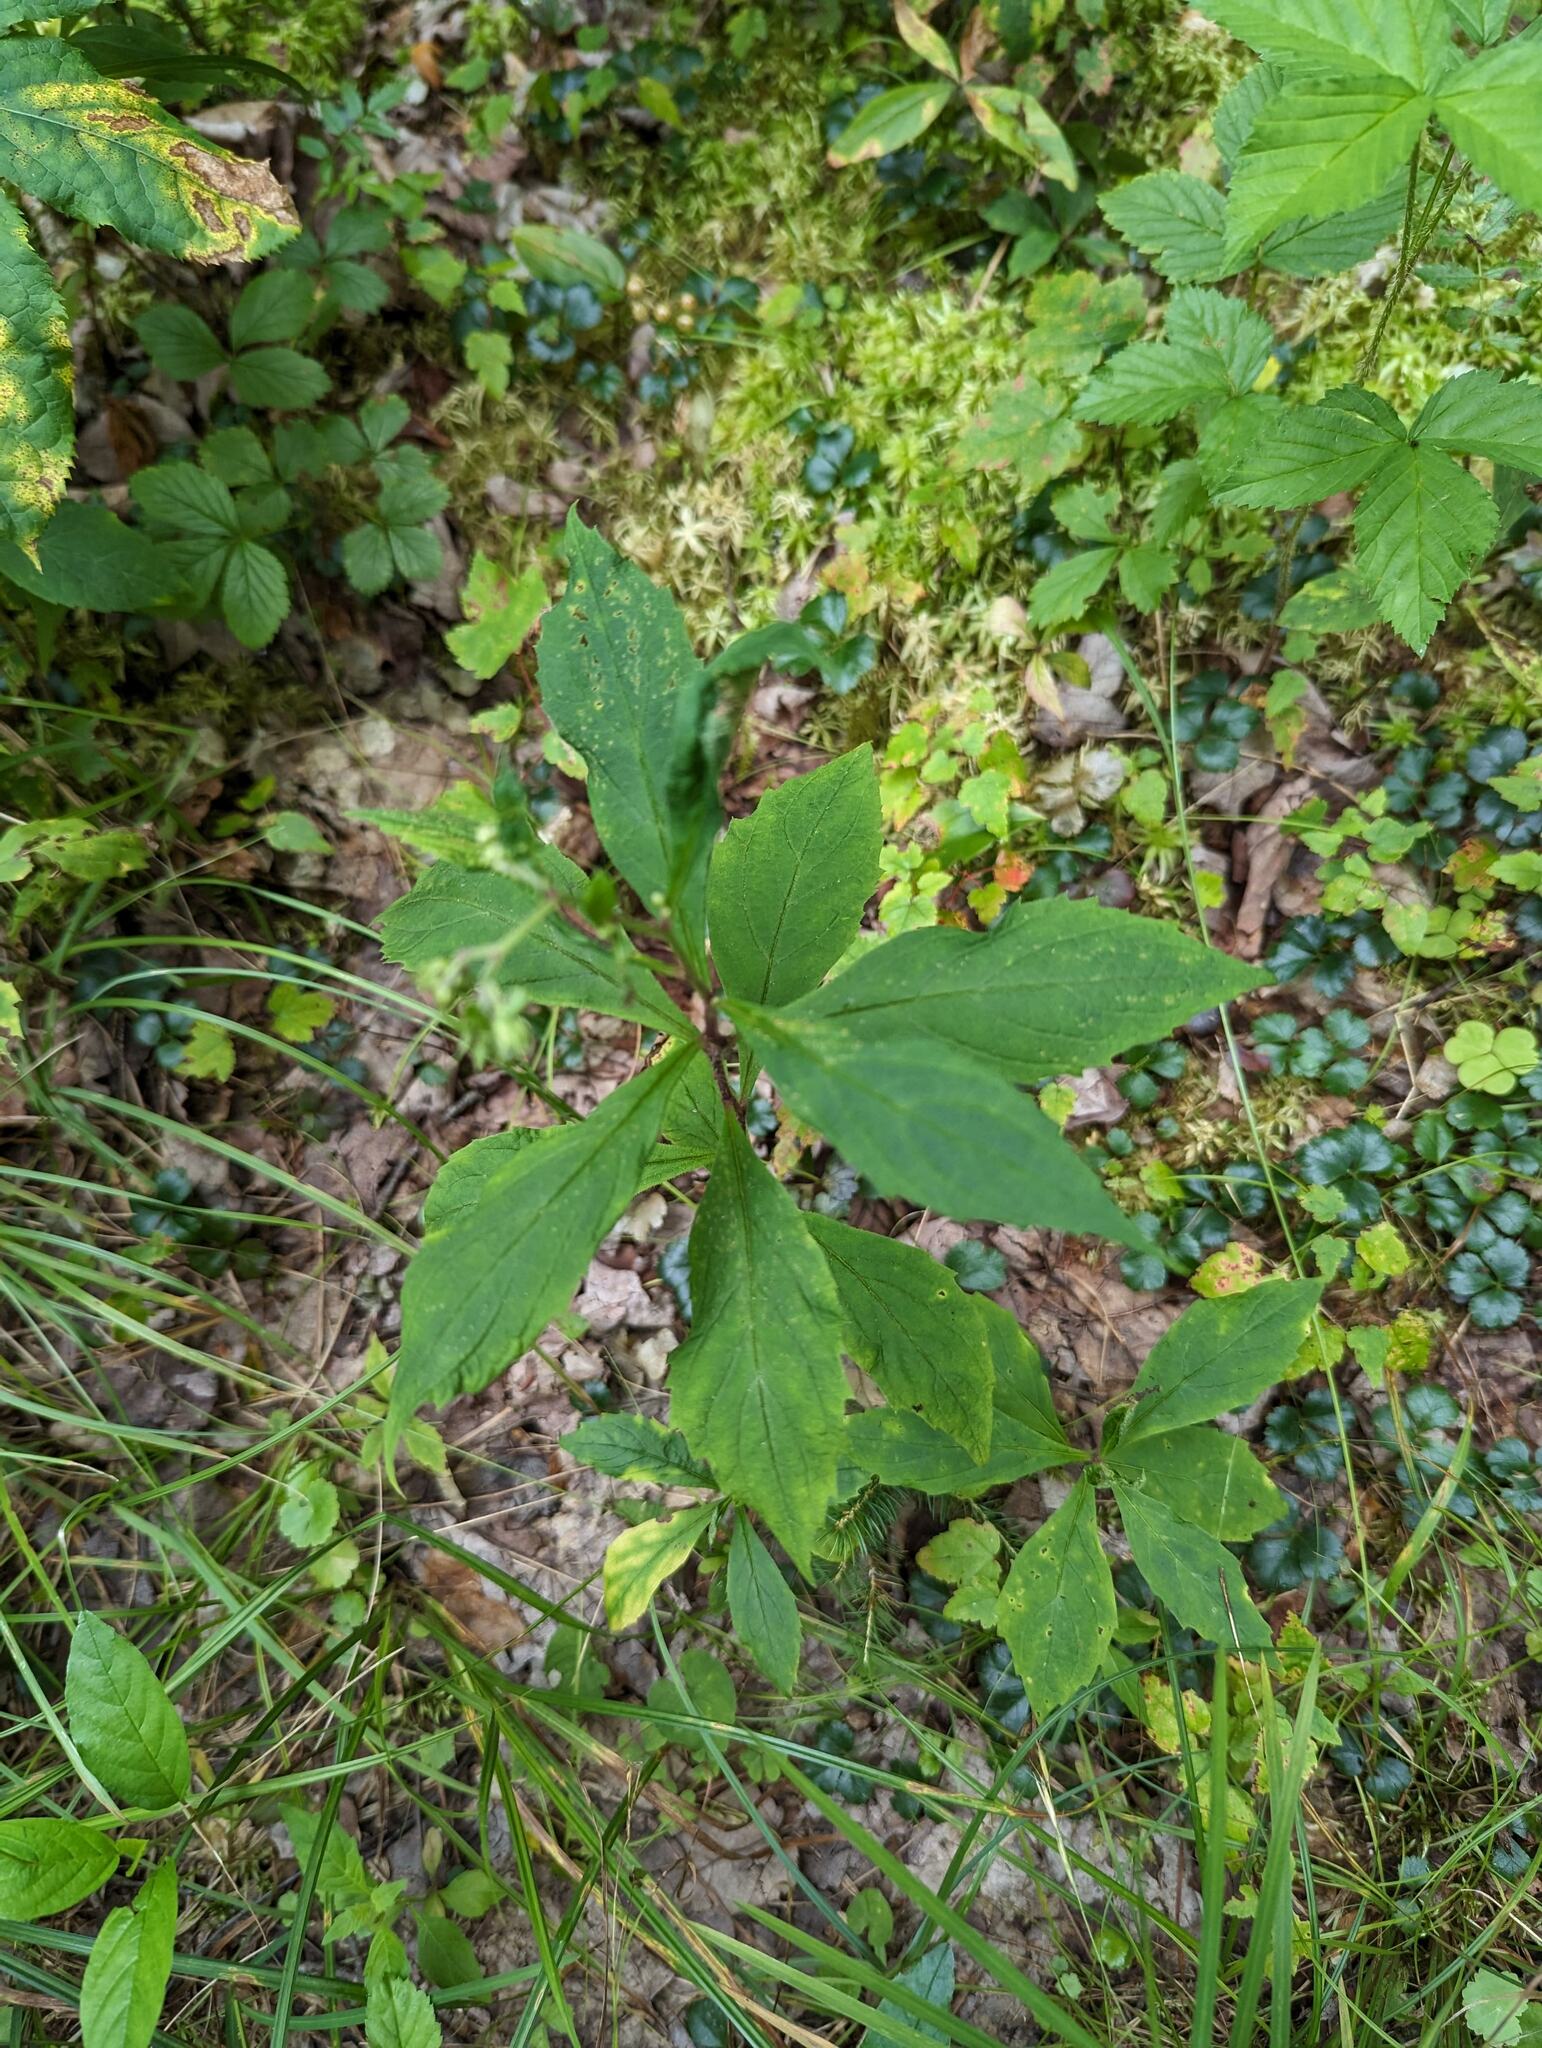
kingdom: Plantae
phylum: Tracheophyta
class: Magnoliopsida
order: Asterales
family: Asteraceae
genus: Oclemena
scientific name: Oclemena acuminata
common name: Mountain aster
